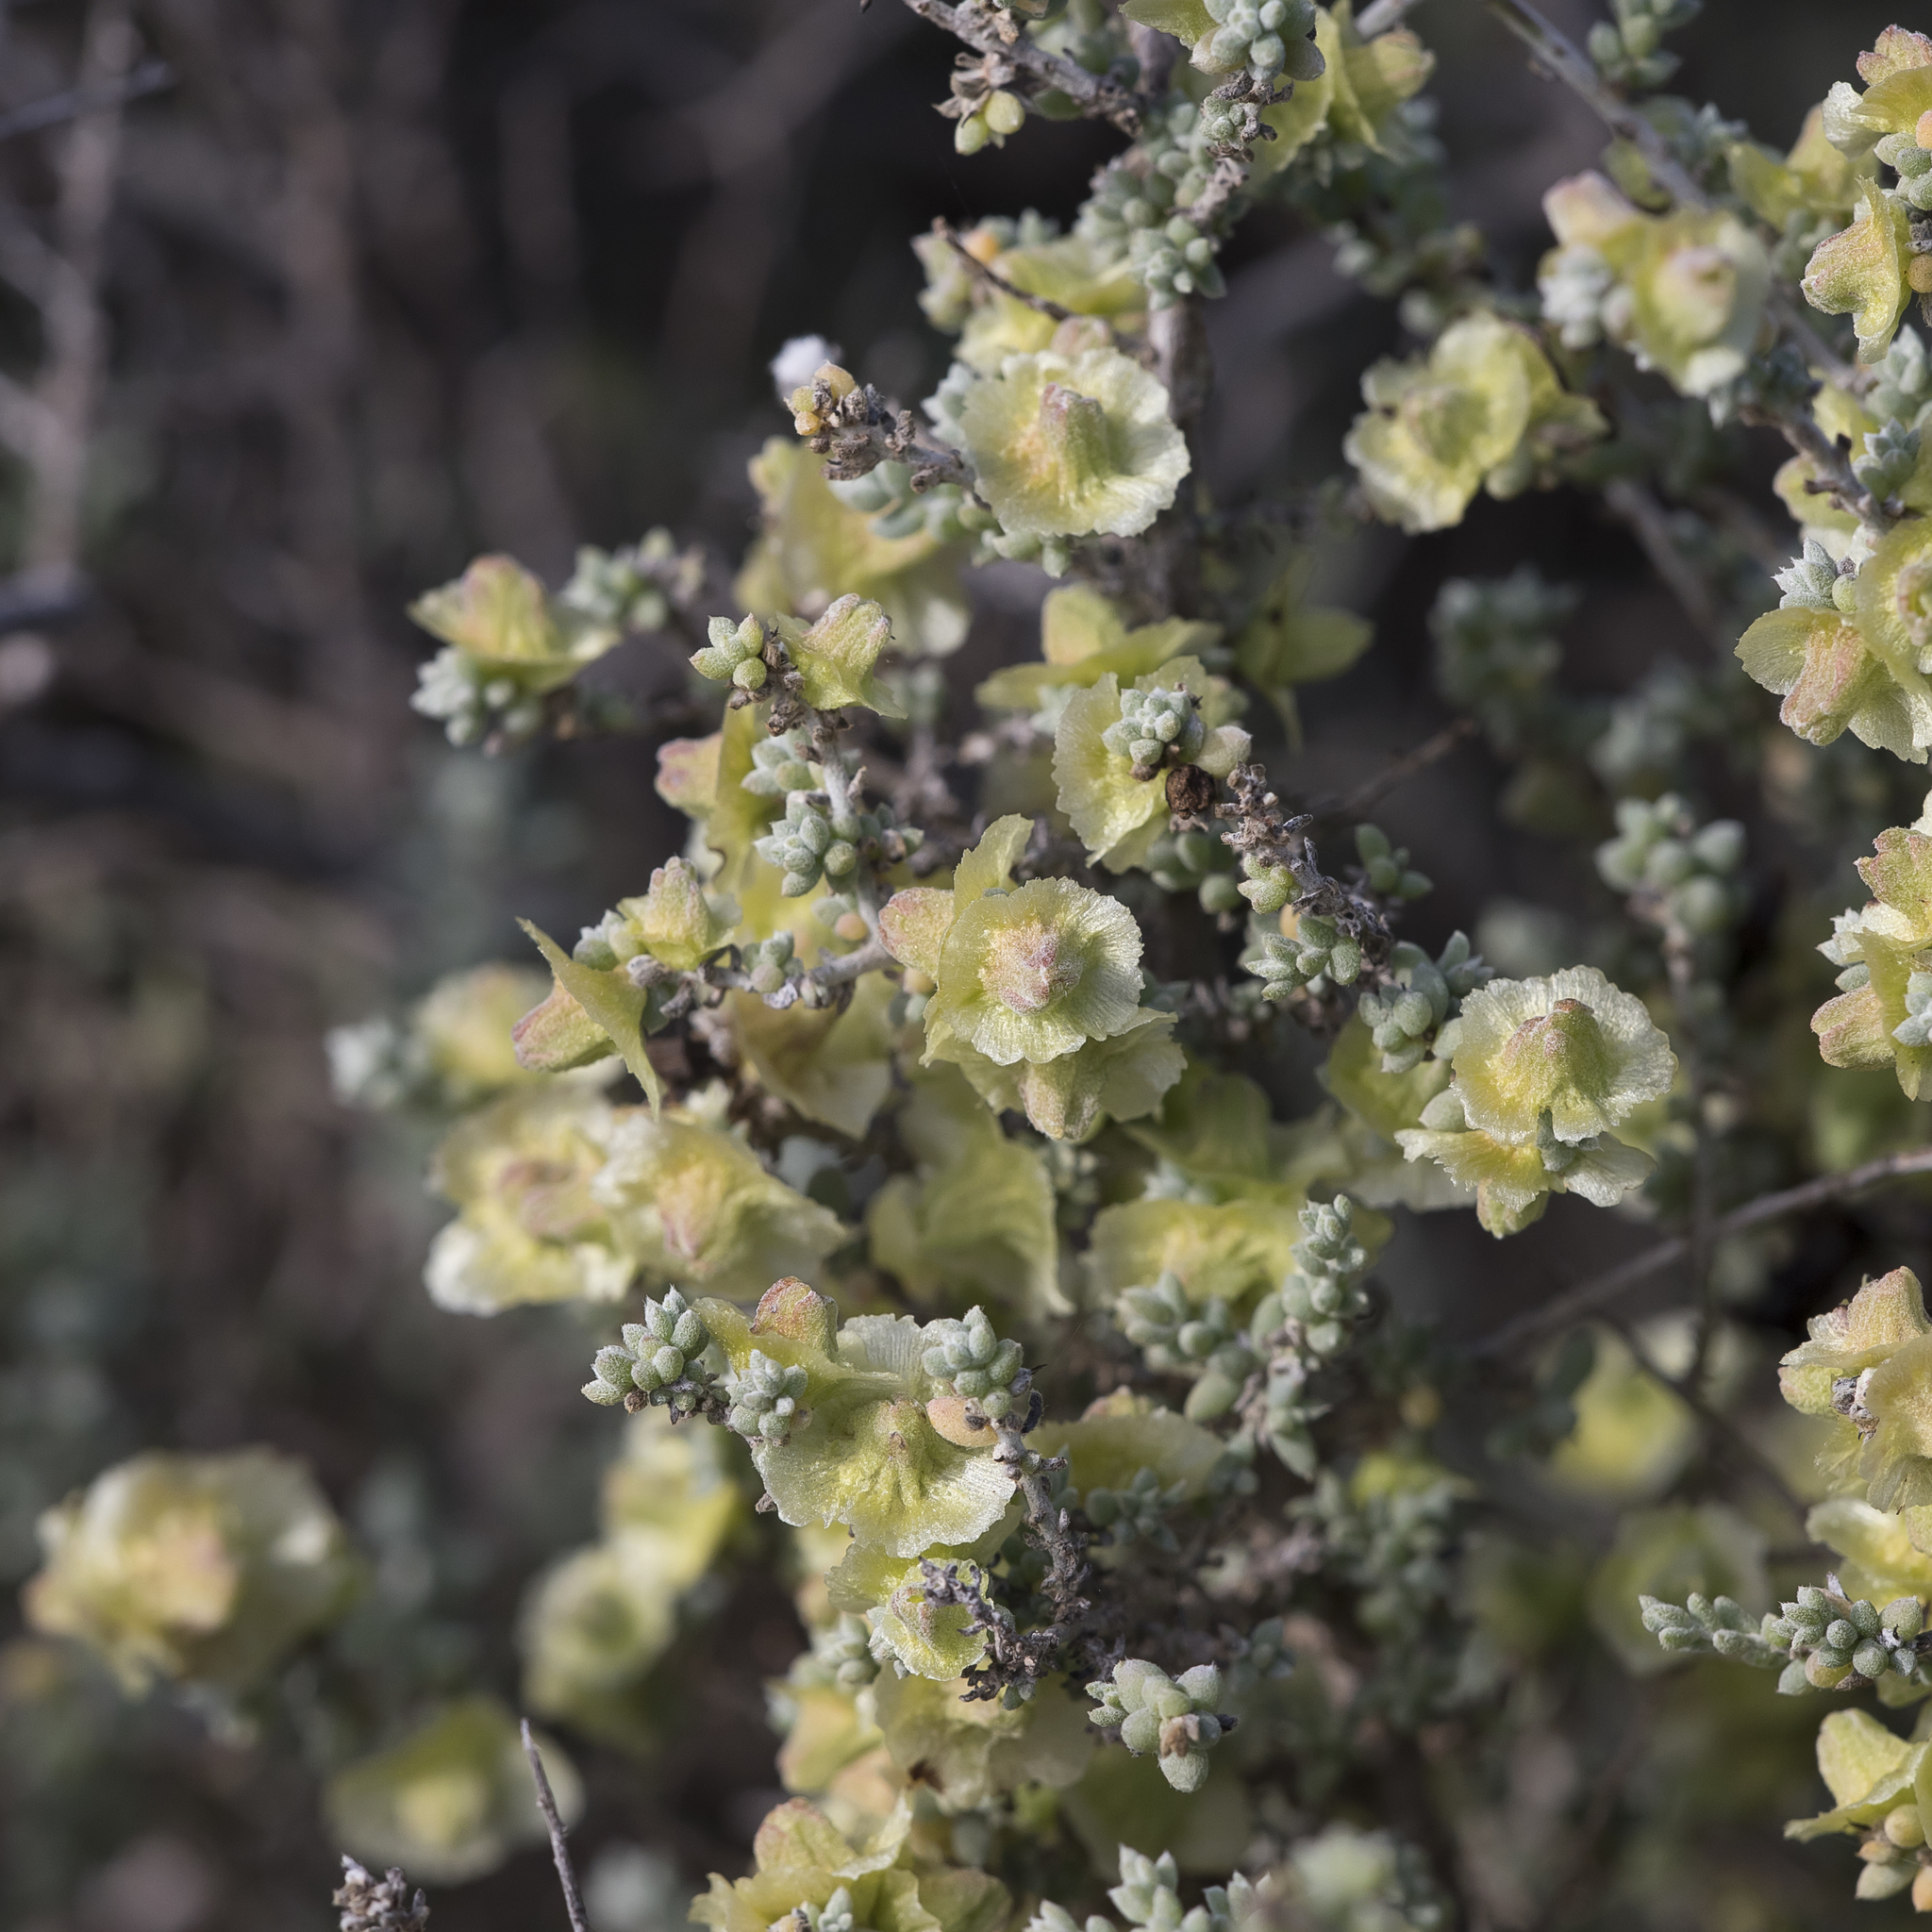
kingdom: Plantae
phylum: Tracheophyta
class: Magnoliopsida
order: Caryophyllales
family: Amaranthaceae
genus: Maireana
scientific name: Maireana pyramidata
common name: Sagobush
